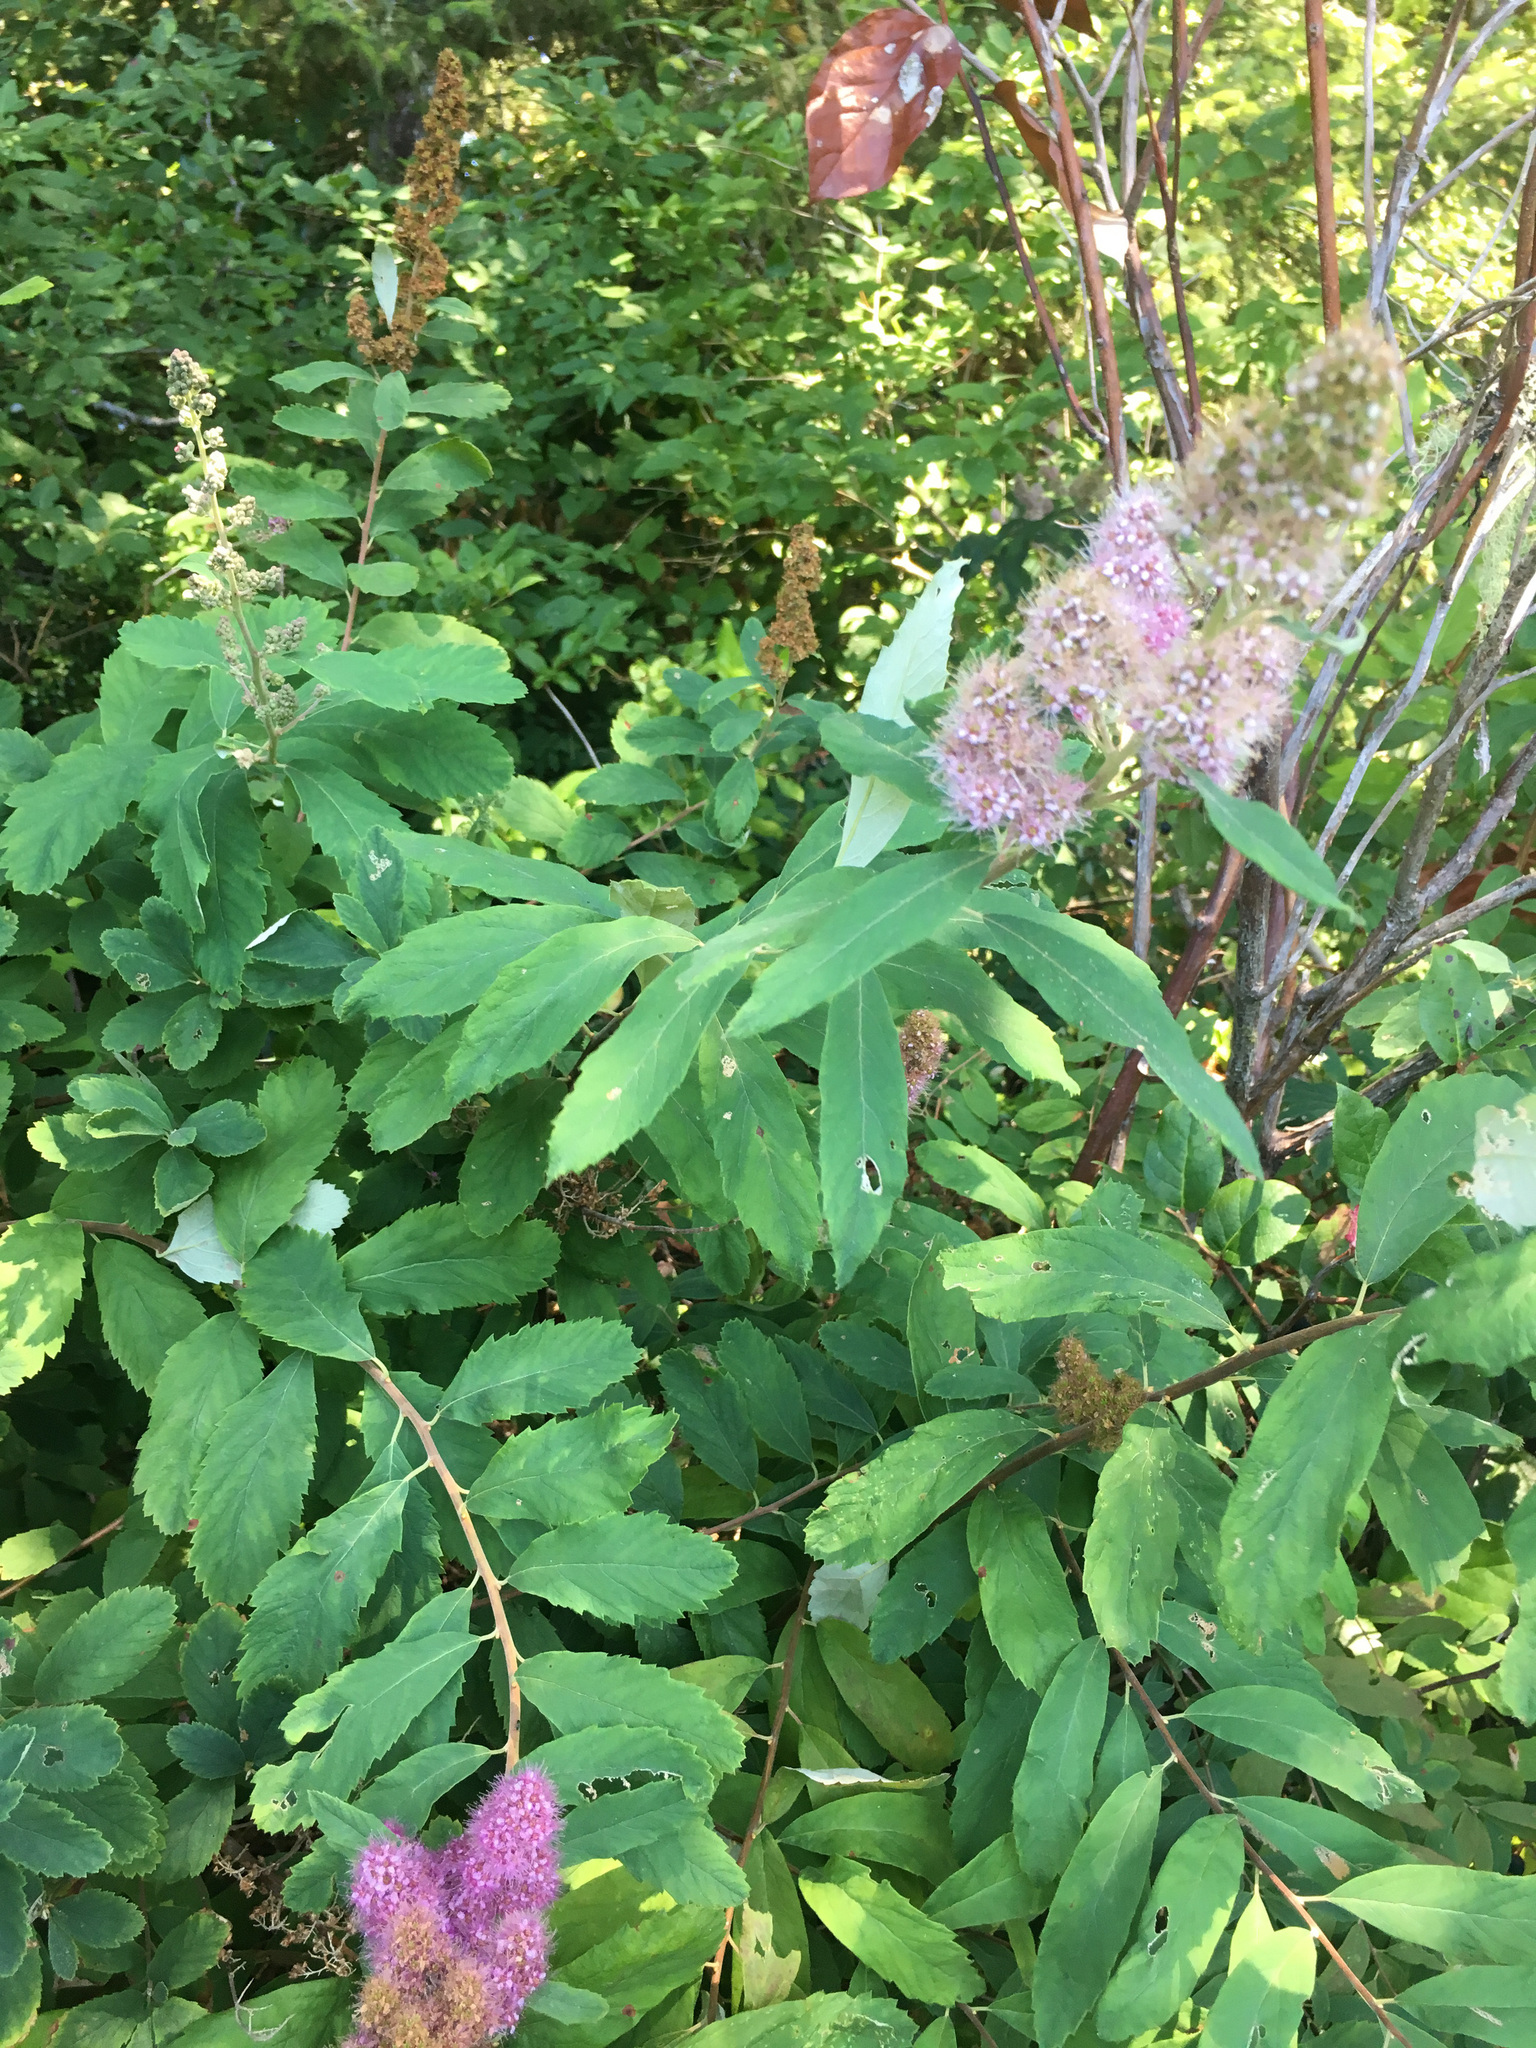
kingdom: Plantae
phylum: Tracheophyta
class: Magnoliopsida
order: Rosales
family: Rosaceae
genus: Spiraea
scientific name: Spiraea douglasii
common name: Steeplebush
